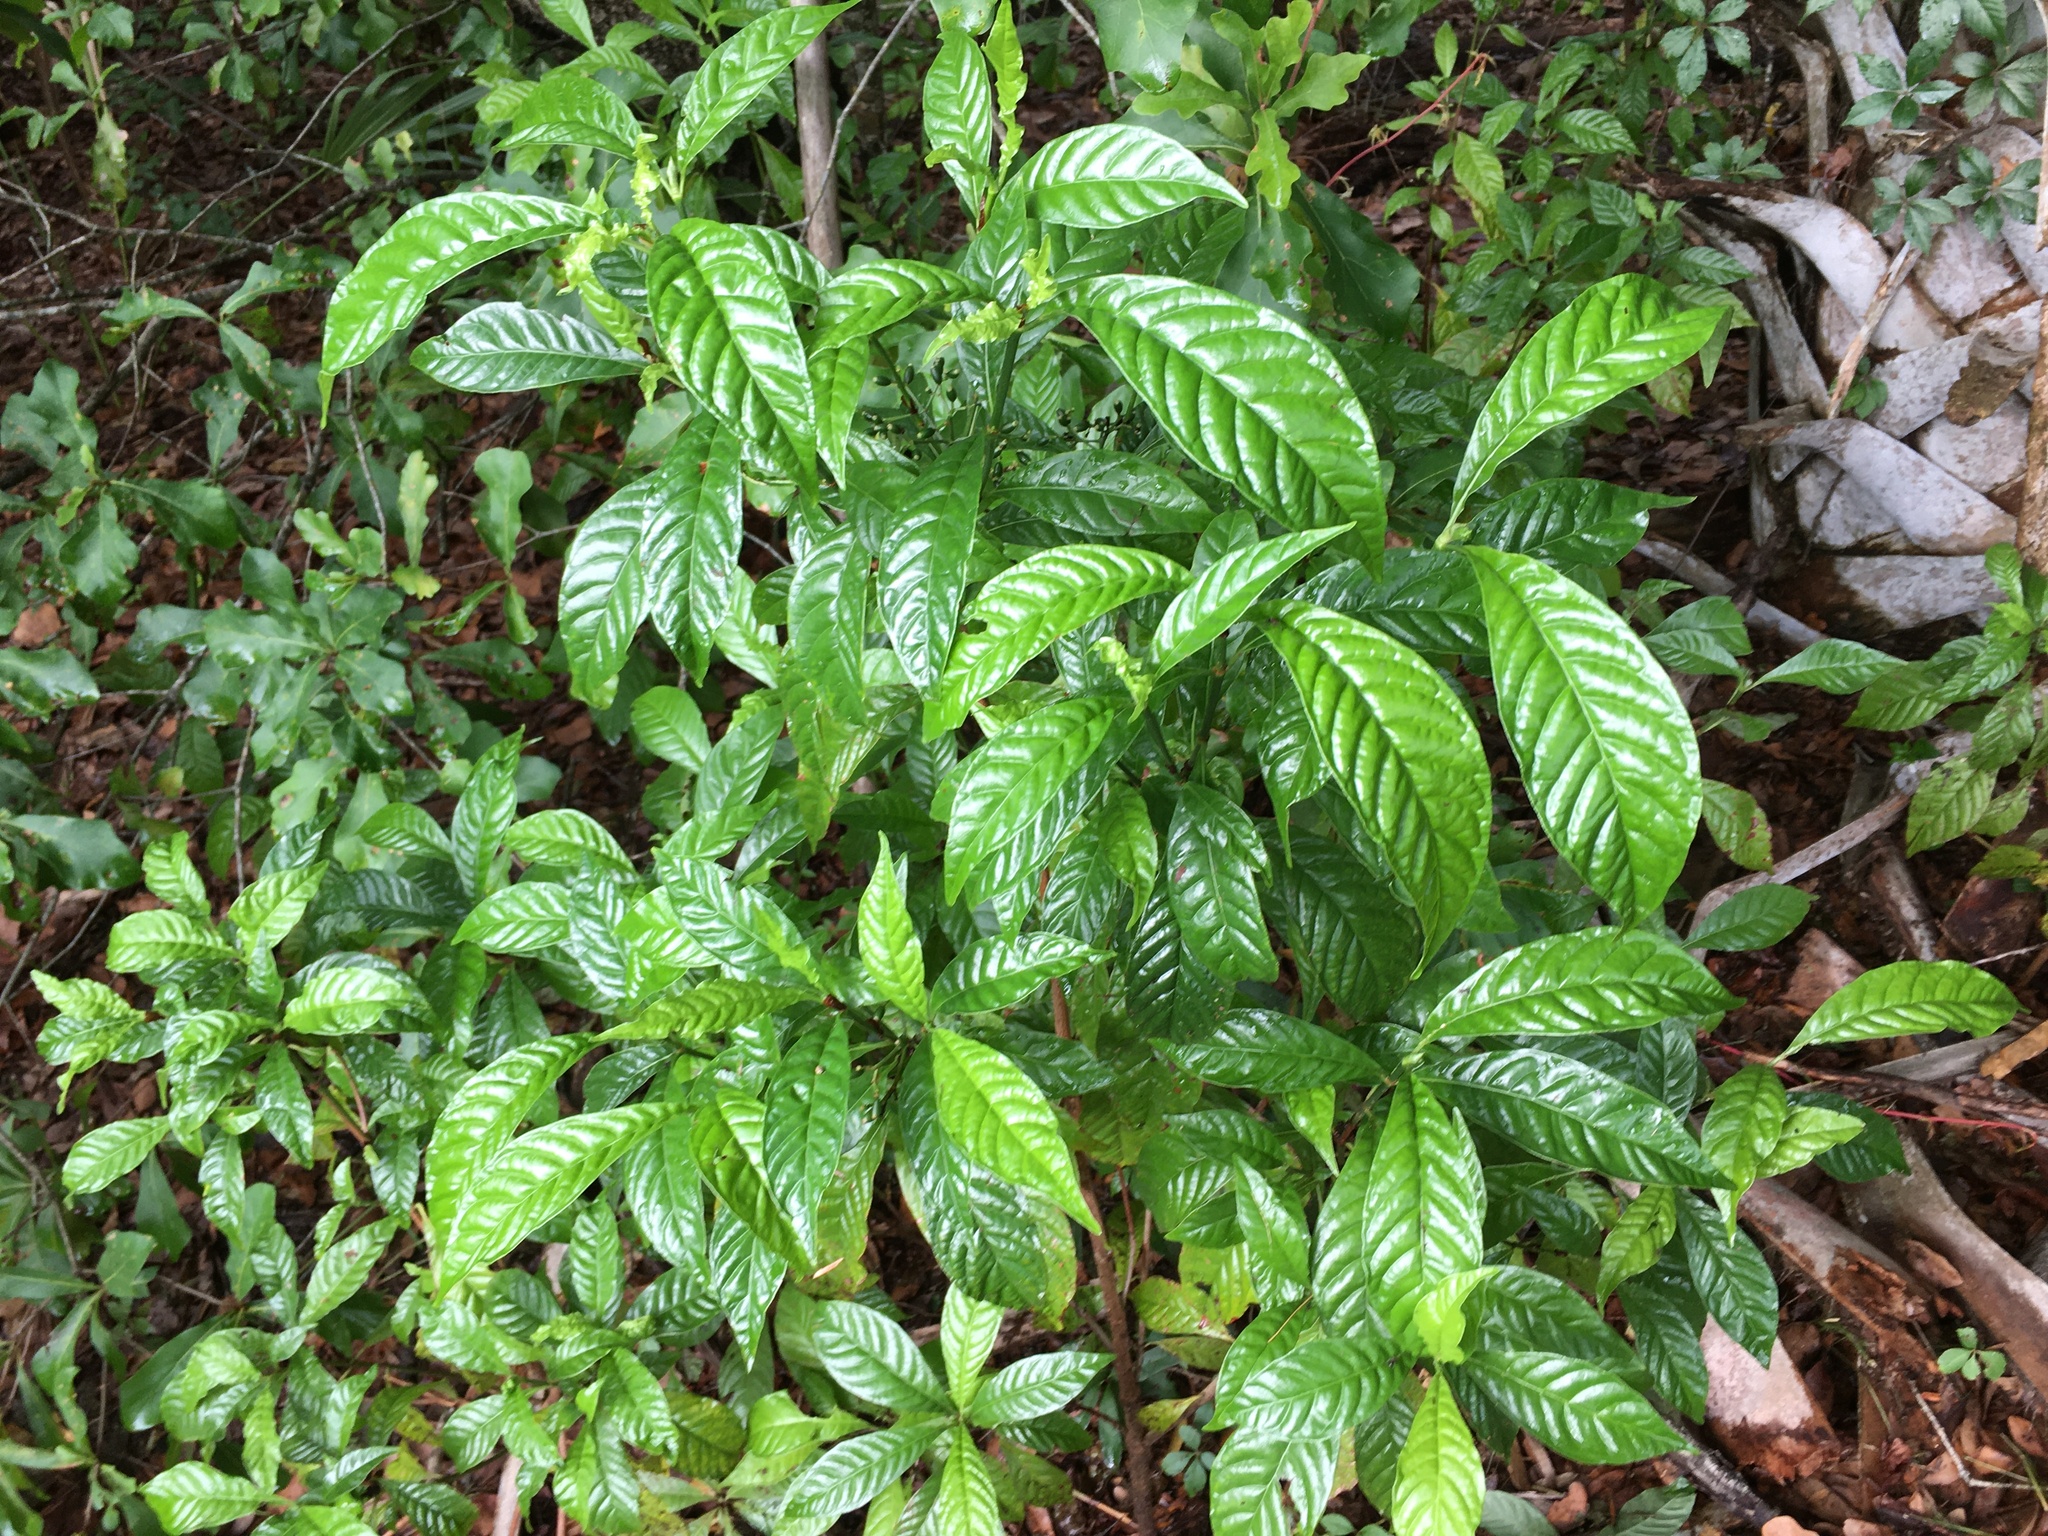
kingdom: Plantae
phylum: Tracheophyta
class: Magnoliopsida
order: Gentianales
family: Rubiaceae
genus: Psychotria
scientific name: Psychotria nervosa
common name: Bastard cankerberry
